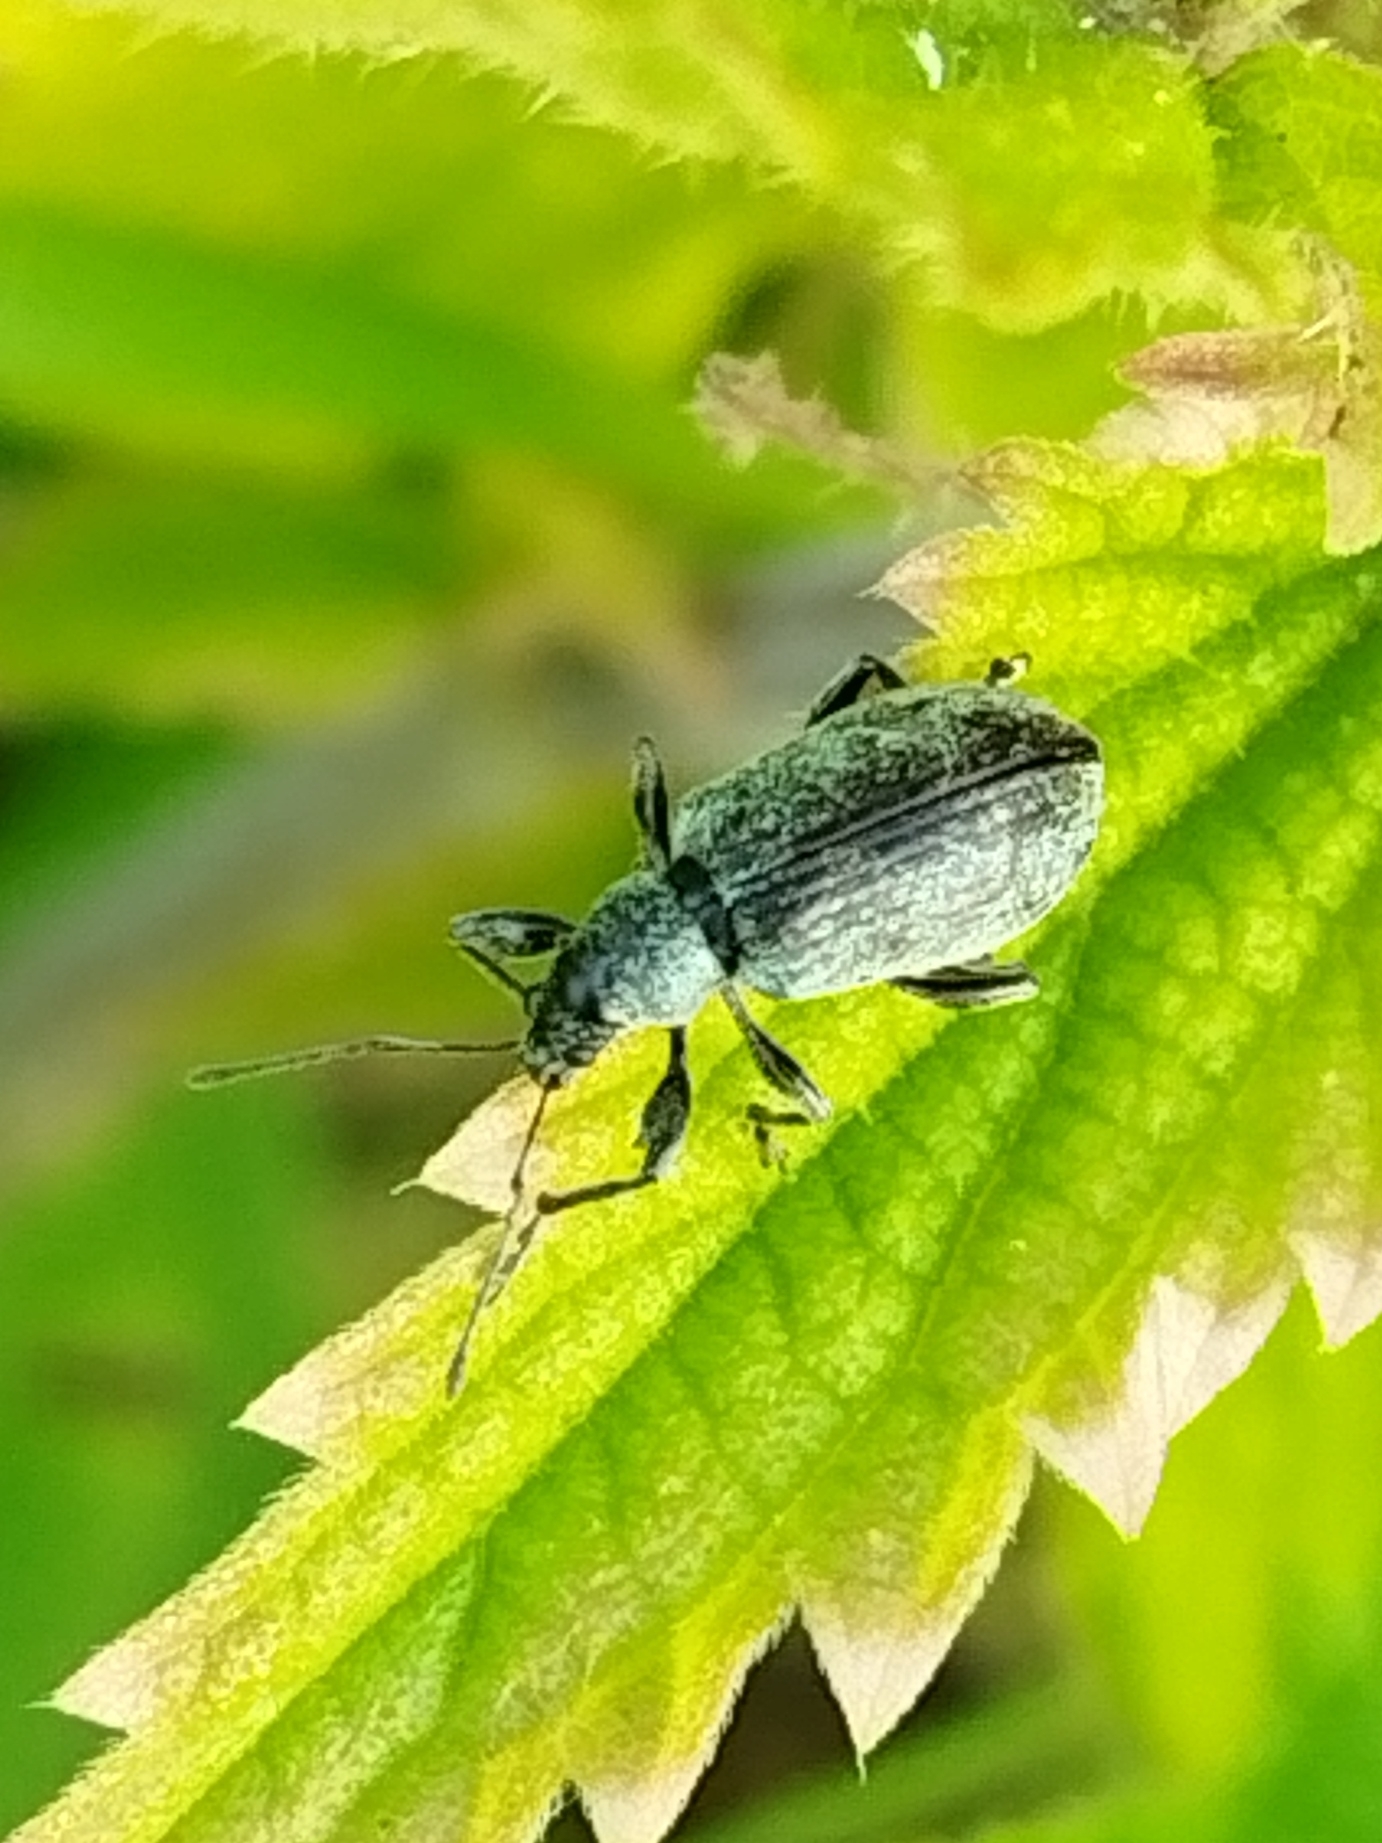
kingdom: Animalia
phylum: Arthropoda
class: Insecta
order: Coleoptera
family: Curculionidae
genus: Phyllobius
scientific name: Phyllobius pomaceus
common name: Green nettle weevil
